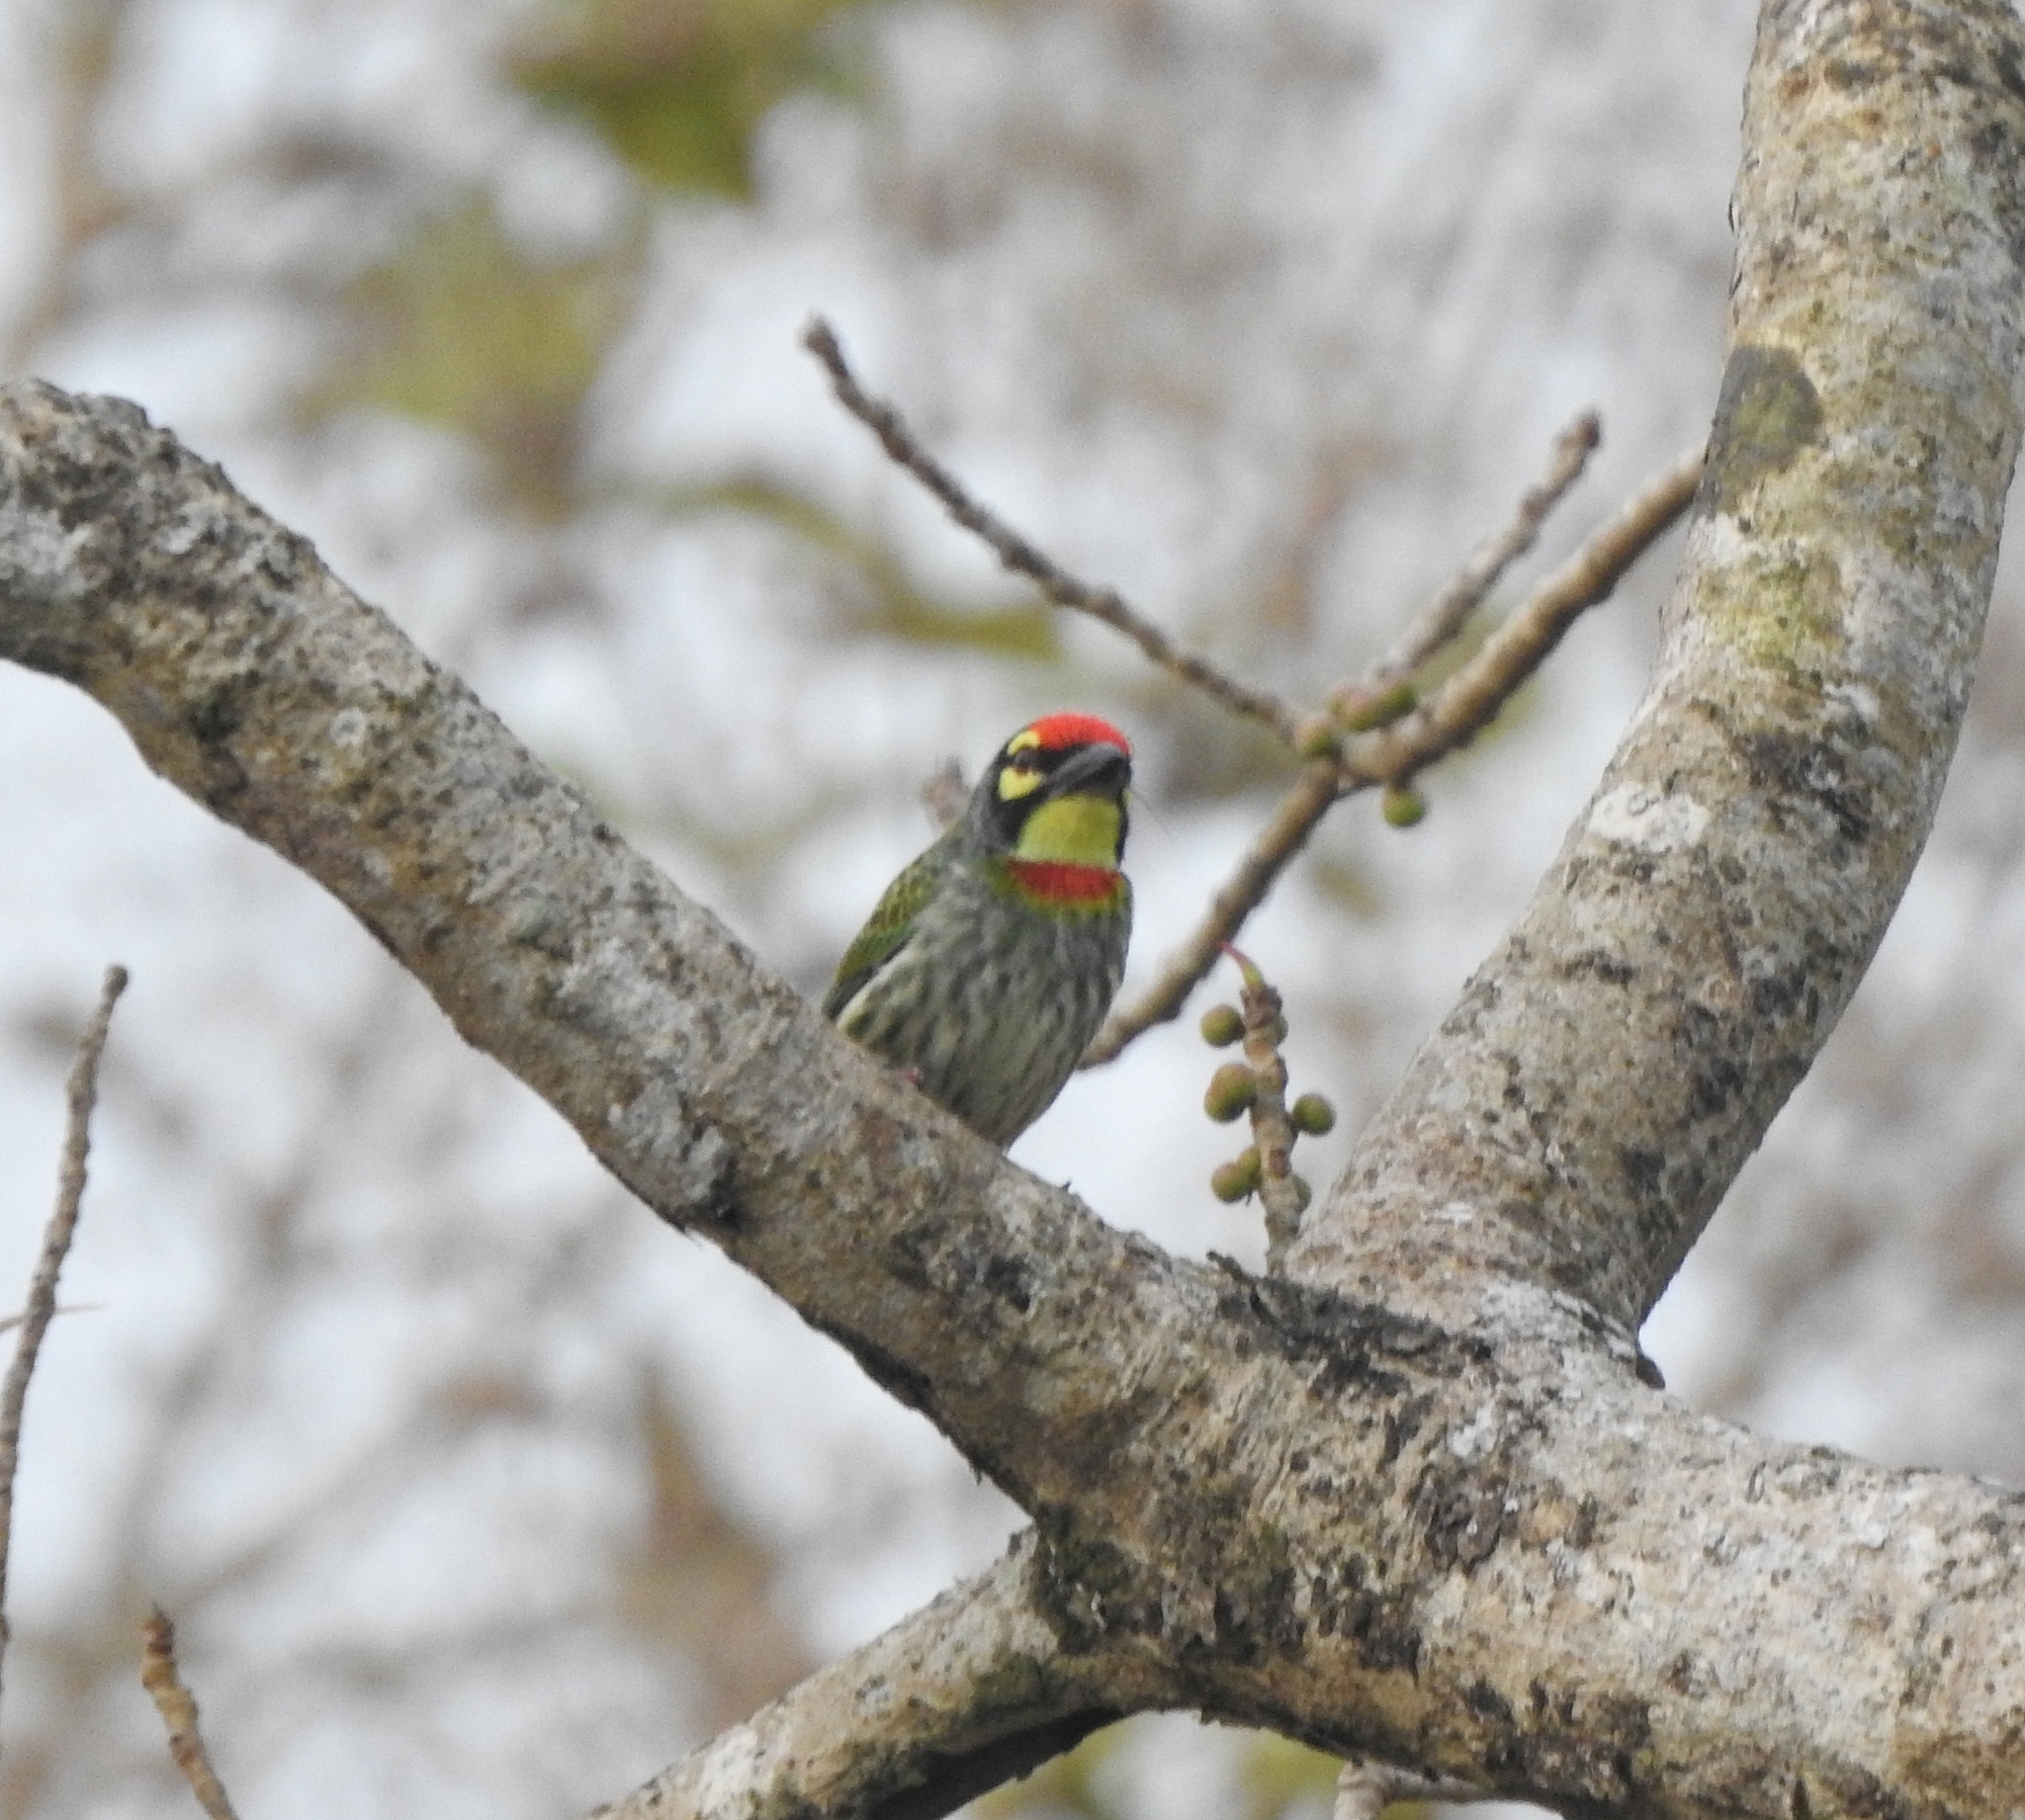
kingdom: Animalia
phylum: Chordata
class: Aves
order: Piciformes
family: Megalaimidae
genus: Psilopogon
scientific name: Psilopogon haemacephalus
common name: Coppersmith barbet
